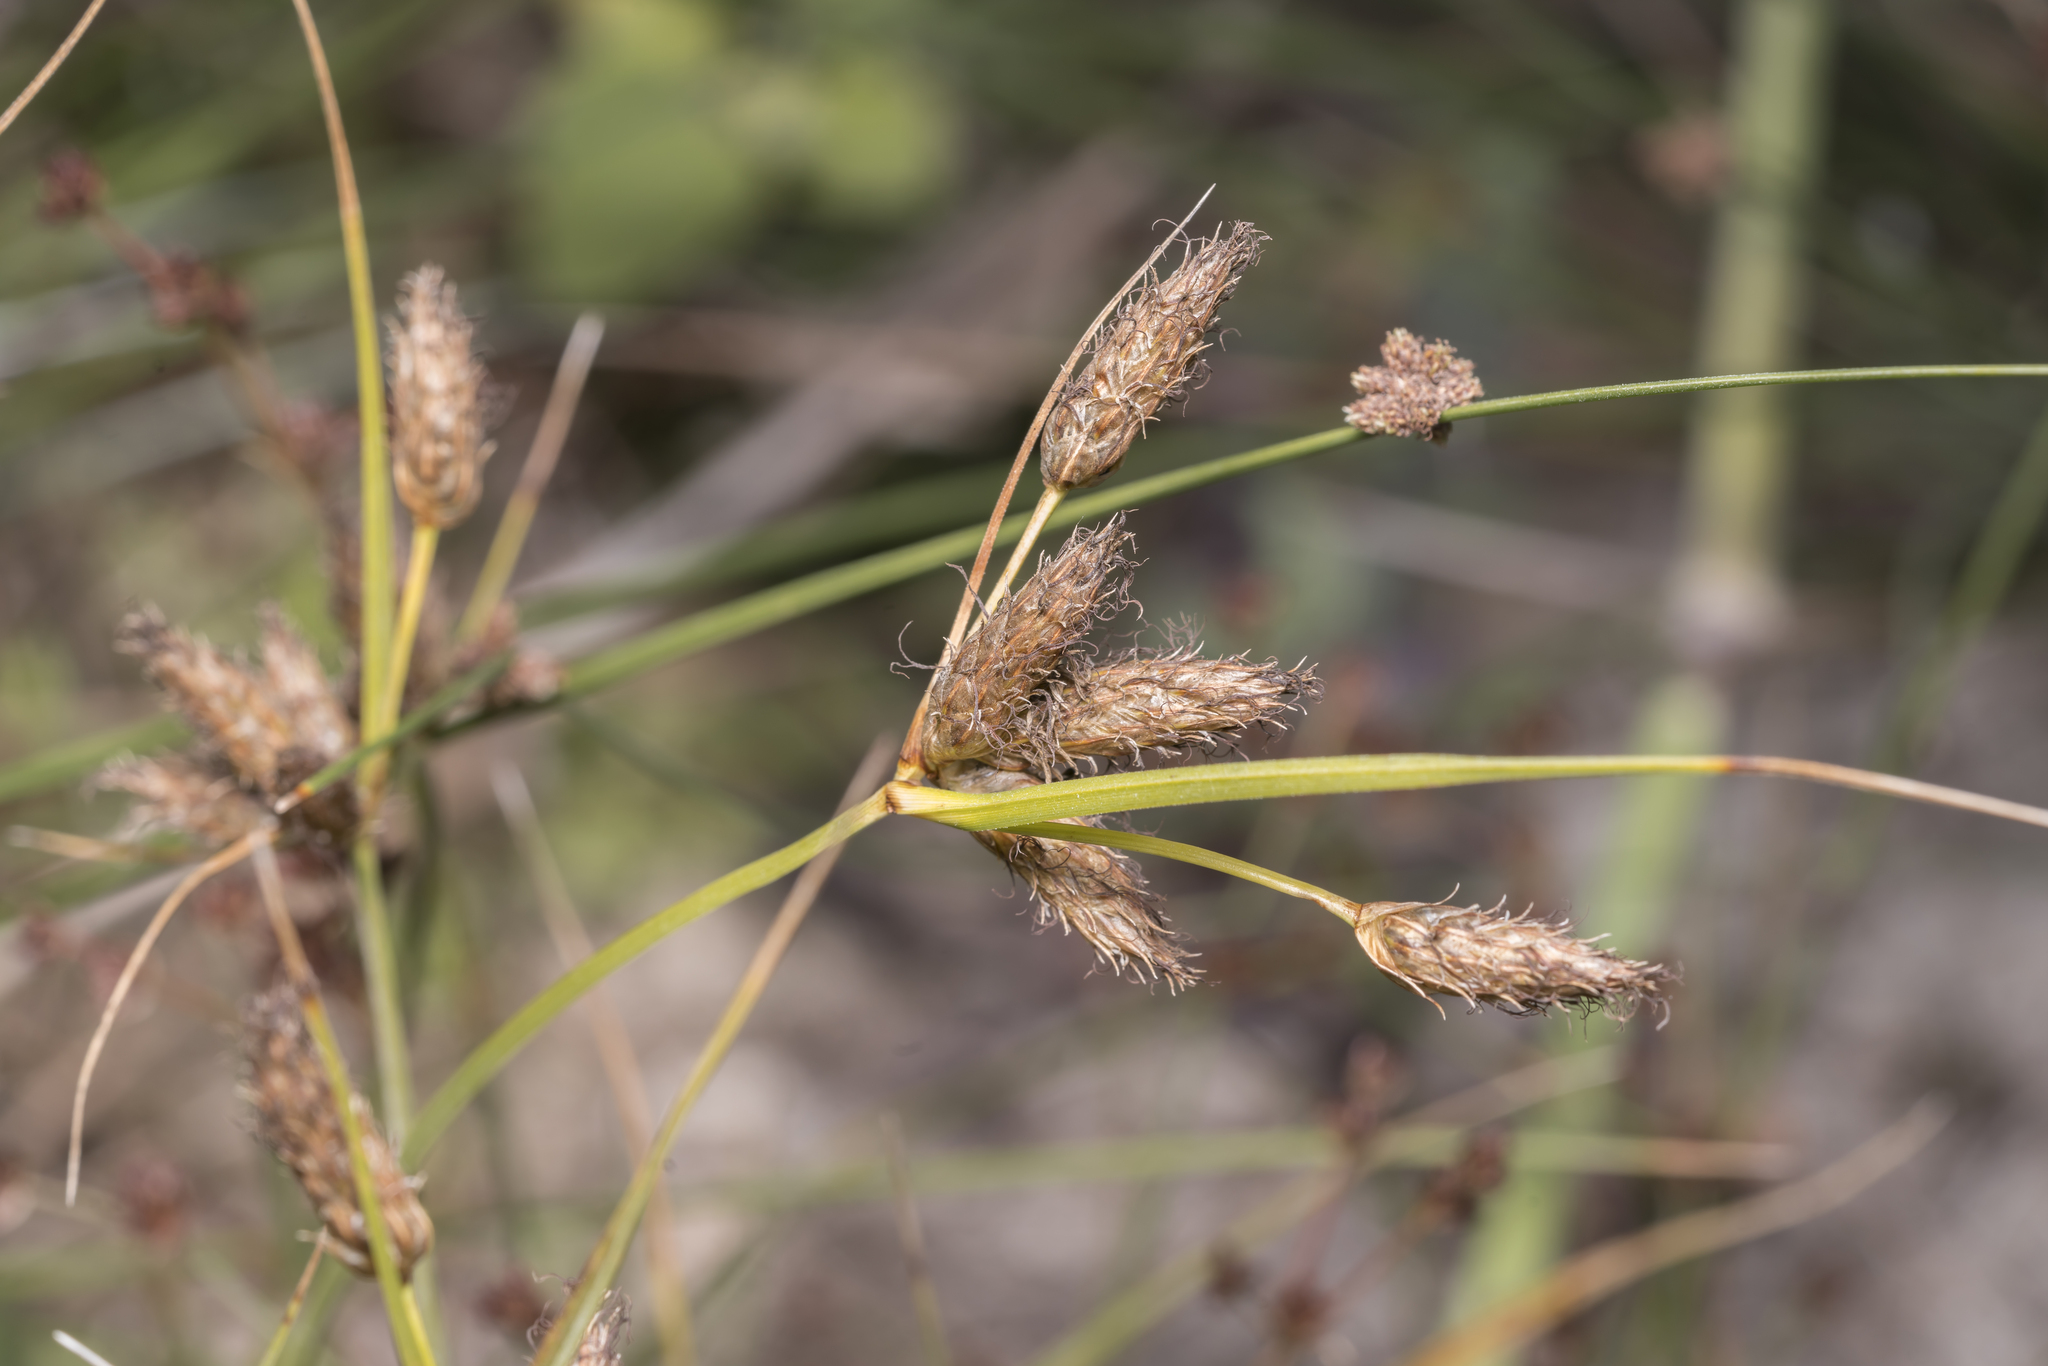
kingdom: Plantae
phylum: Tracheophyta
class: Liliopsida
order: Poales
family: Cyperaceae
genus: Bolboschoenus
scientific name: Bolboschoenus maritimus
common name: Sea club-rush
